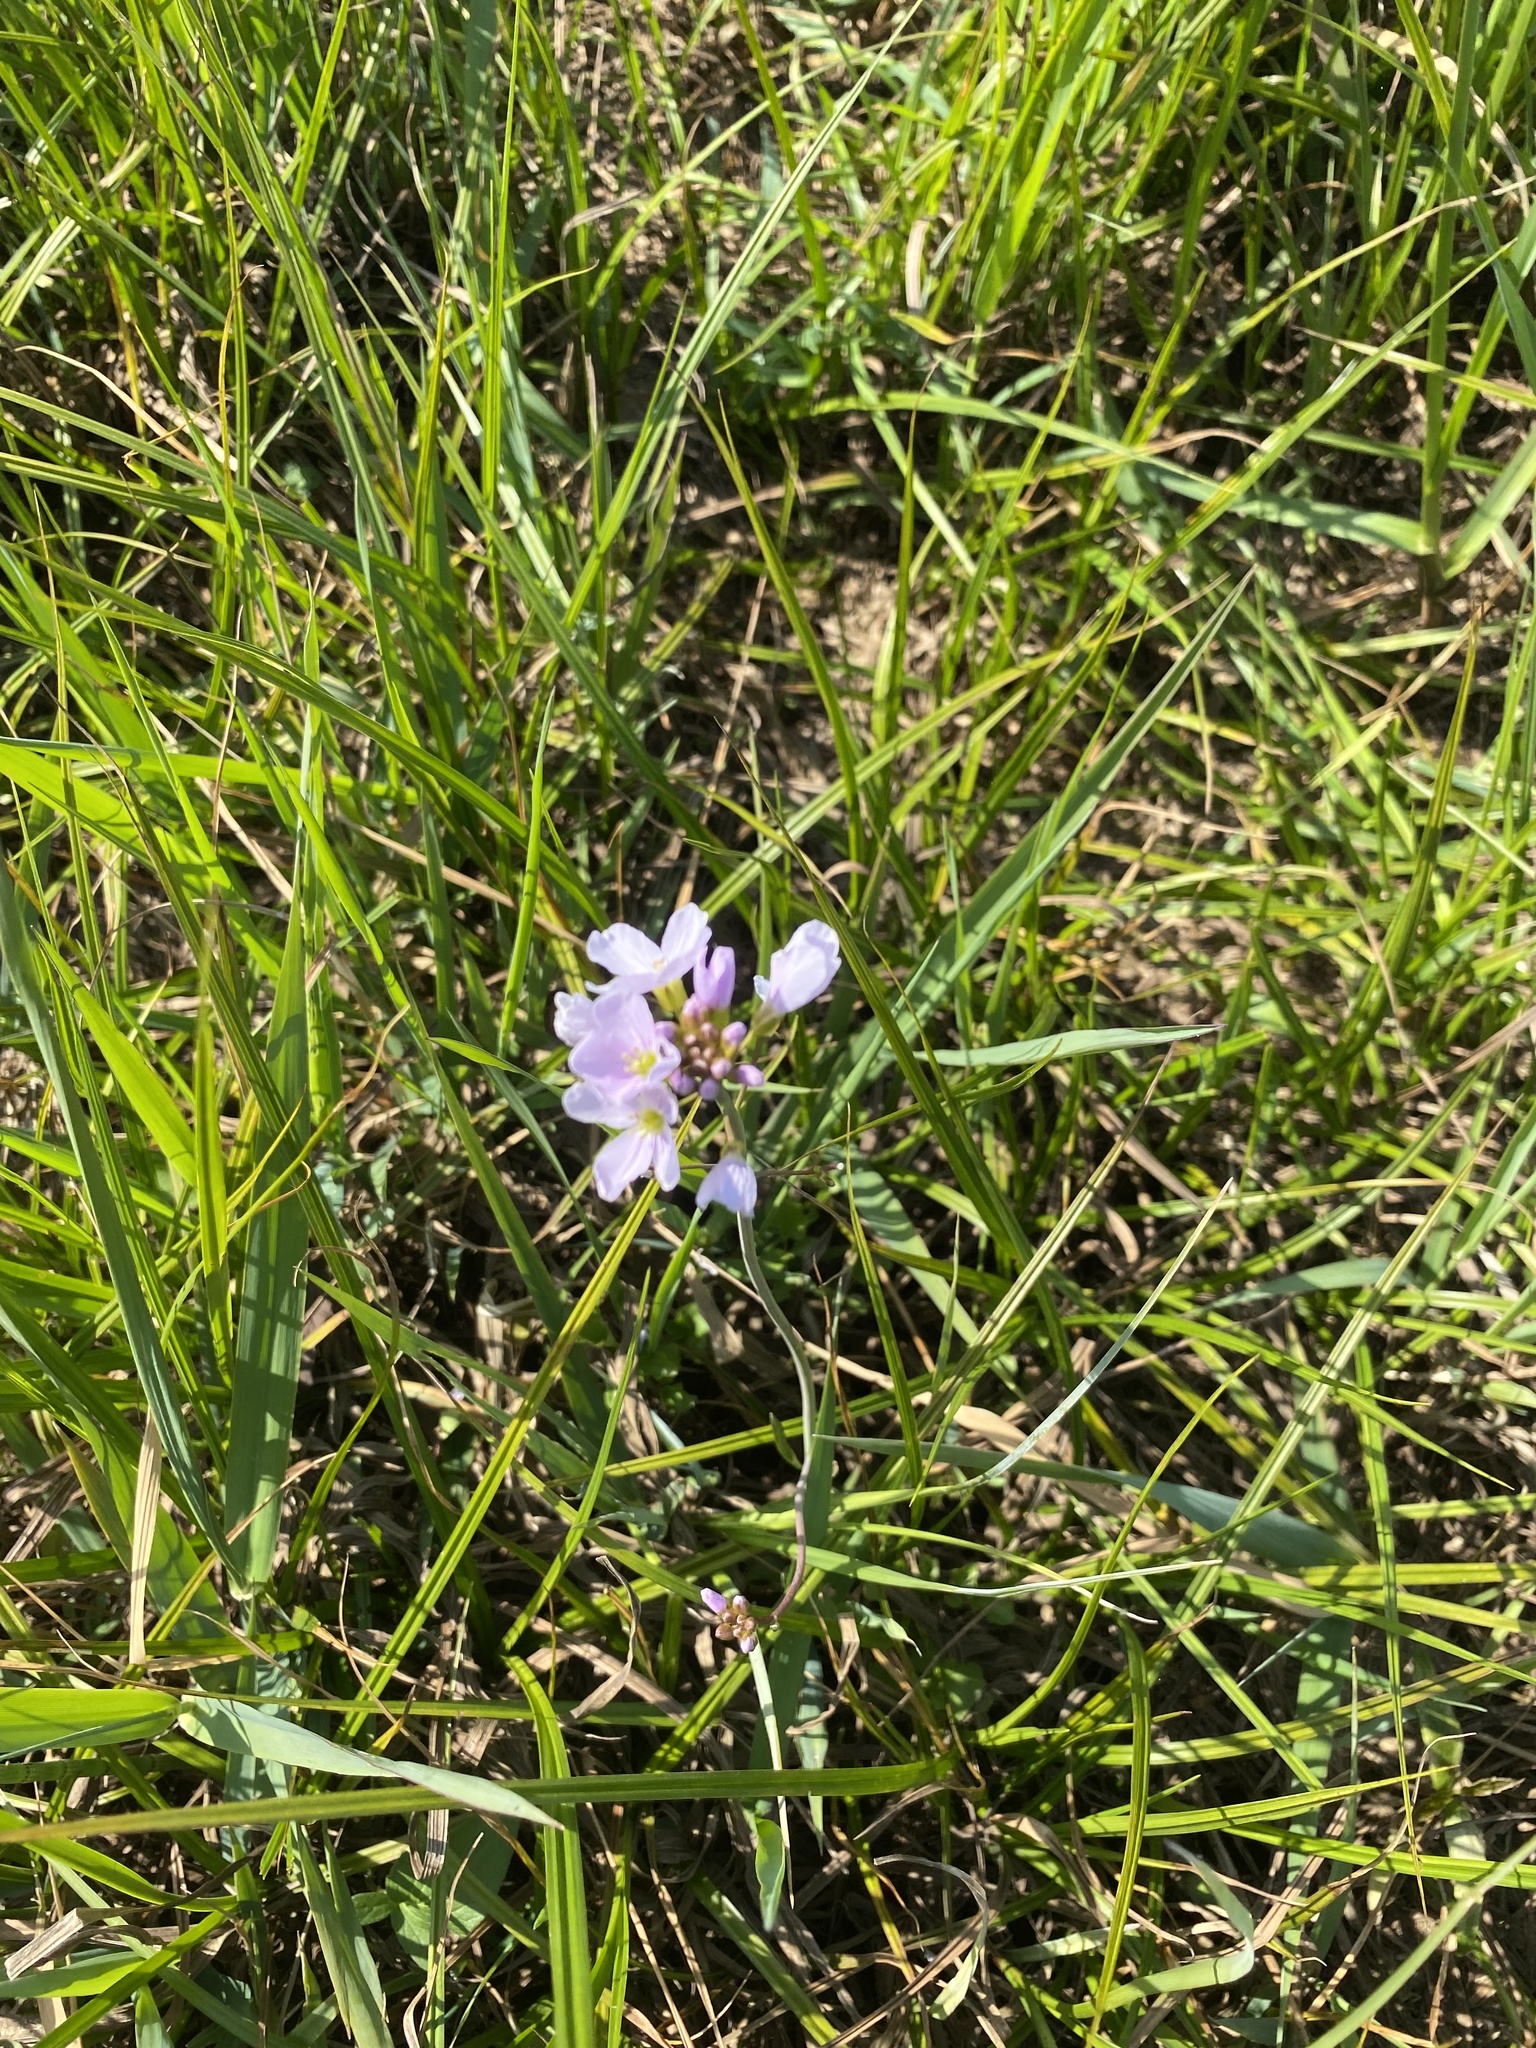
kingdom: Plantae
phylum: Tracheophyta
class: Magnoliopsida
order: Brassicales
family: Brassicaceae
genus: Cardamine
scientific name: Cardamine pratensis
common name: Cuckoo flower
